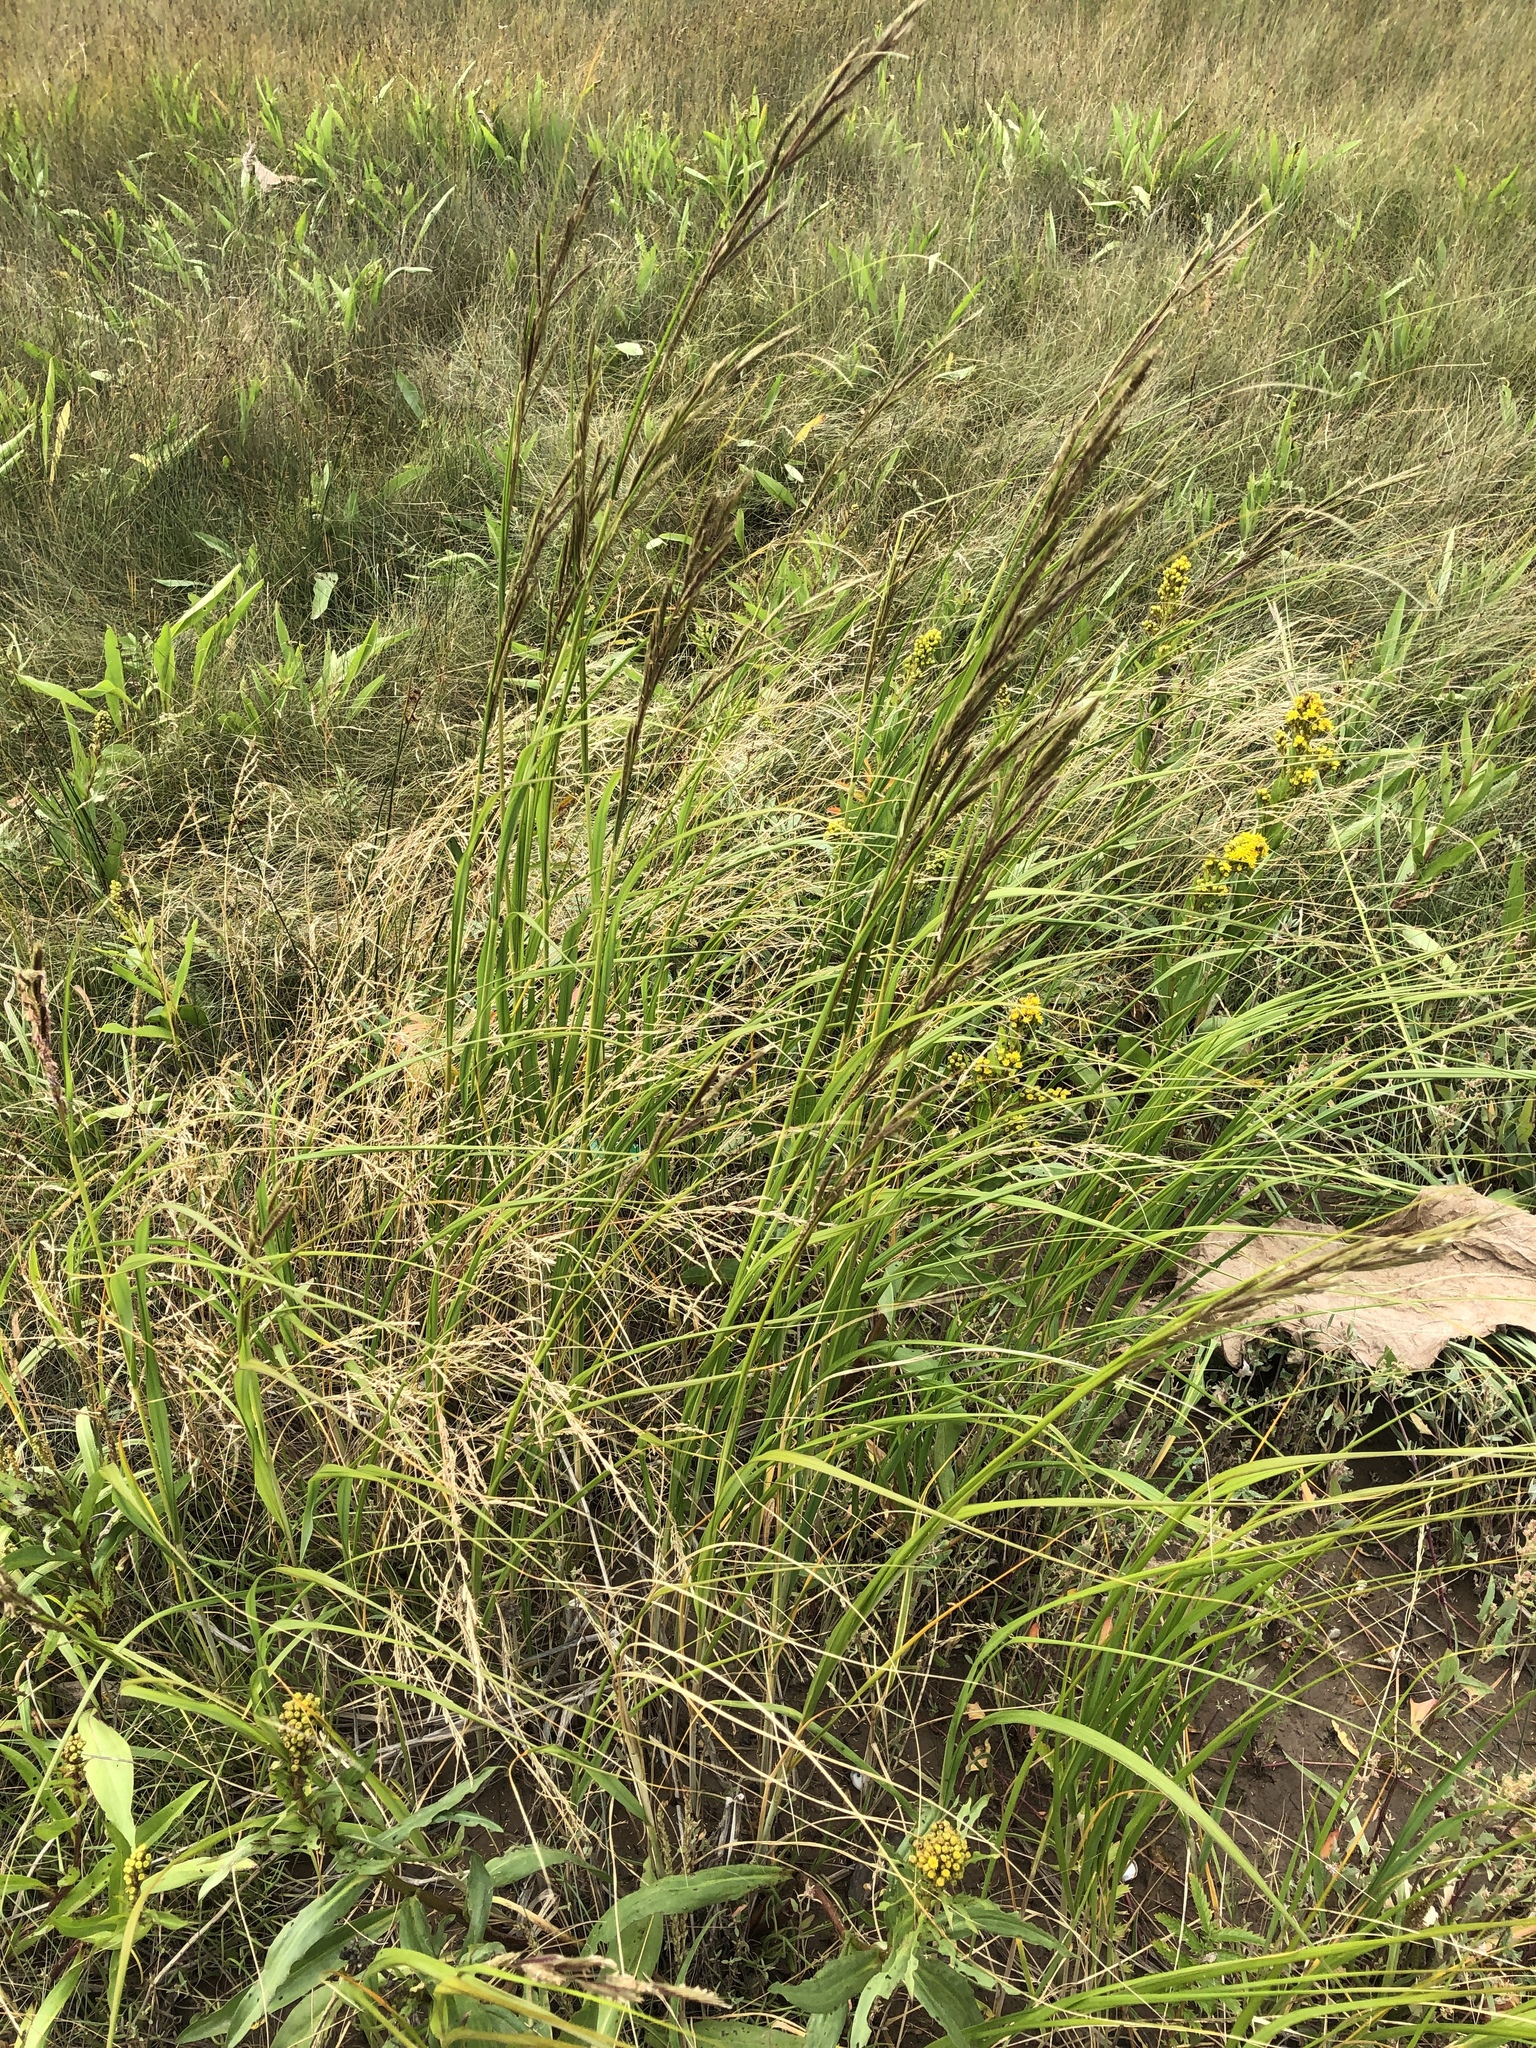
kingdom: Plantae
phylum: Tracheophyta
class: Liliopsida
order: Poales
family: Poaceae
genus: Sporobolus
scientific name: Sporobolus michauxianus
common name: Freshwater cordgrass
